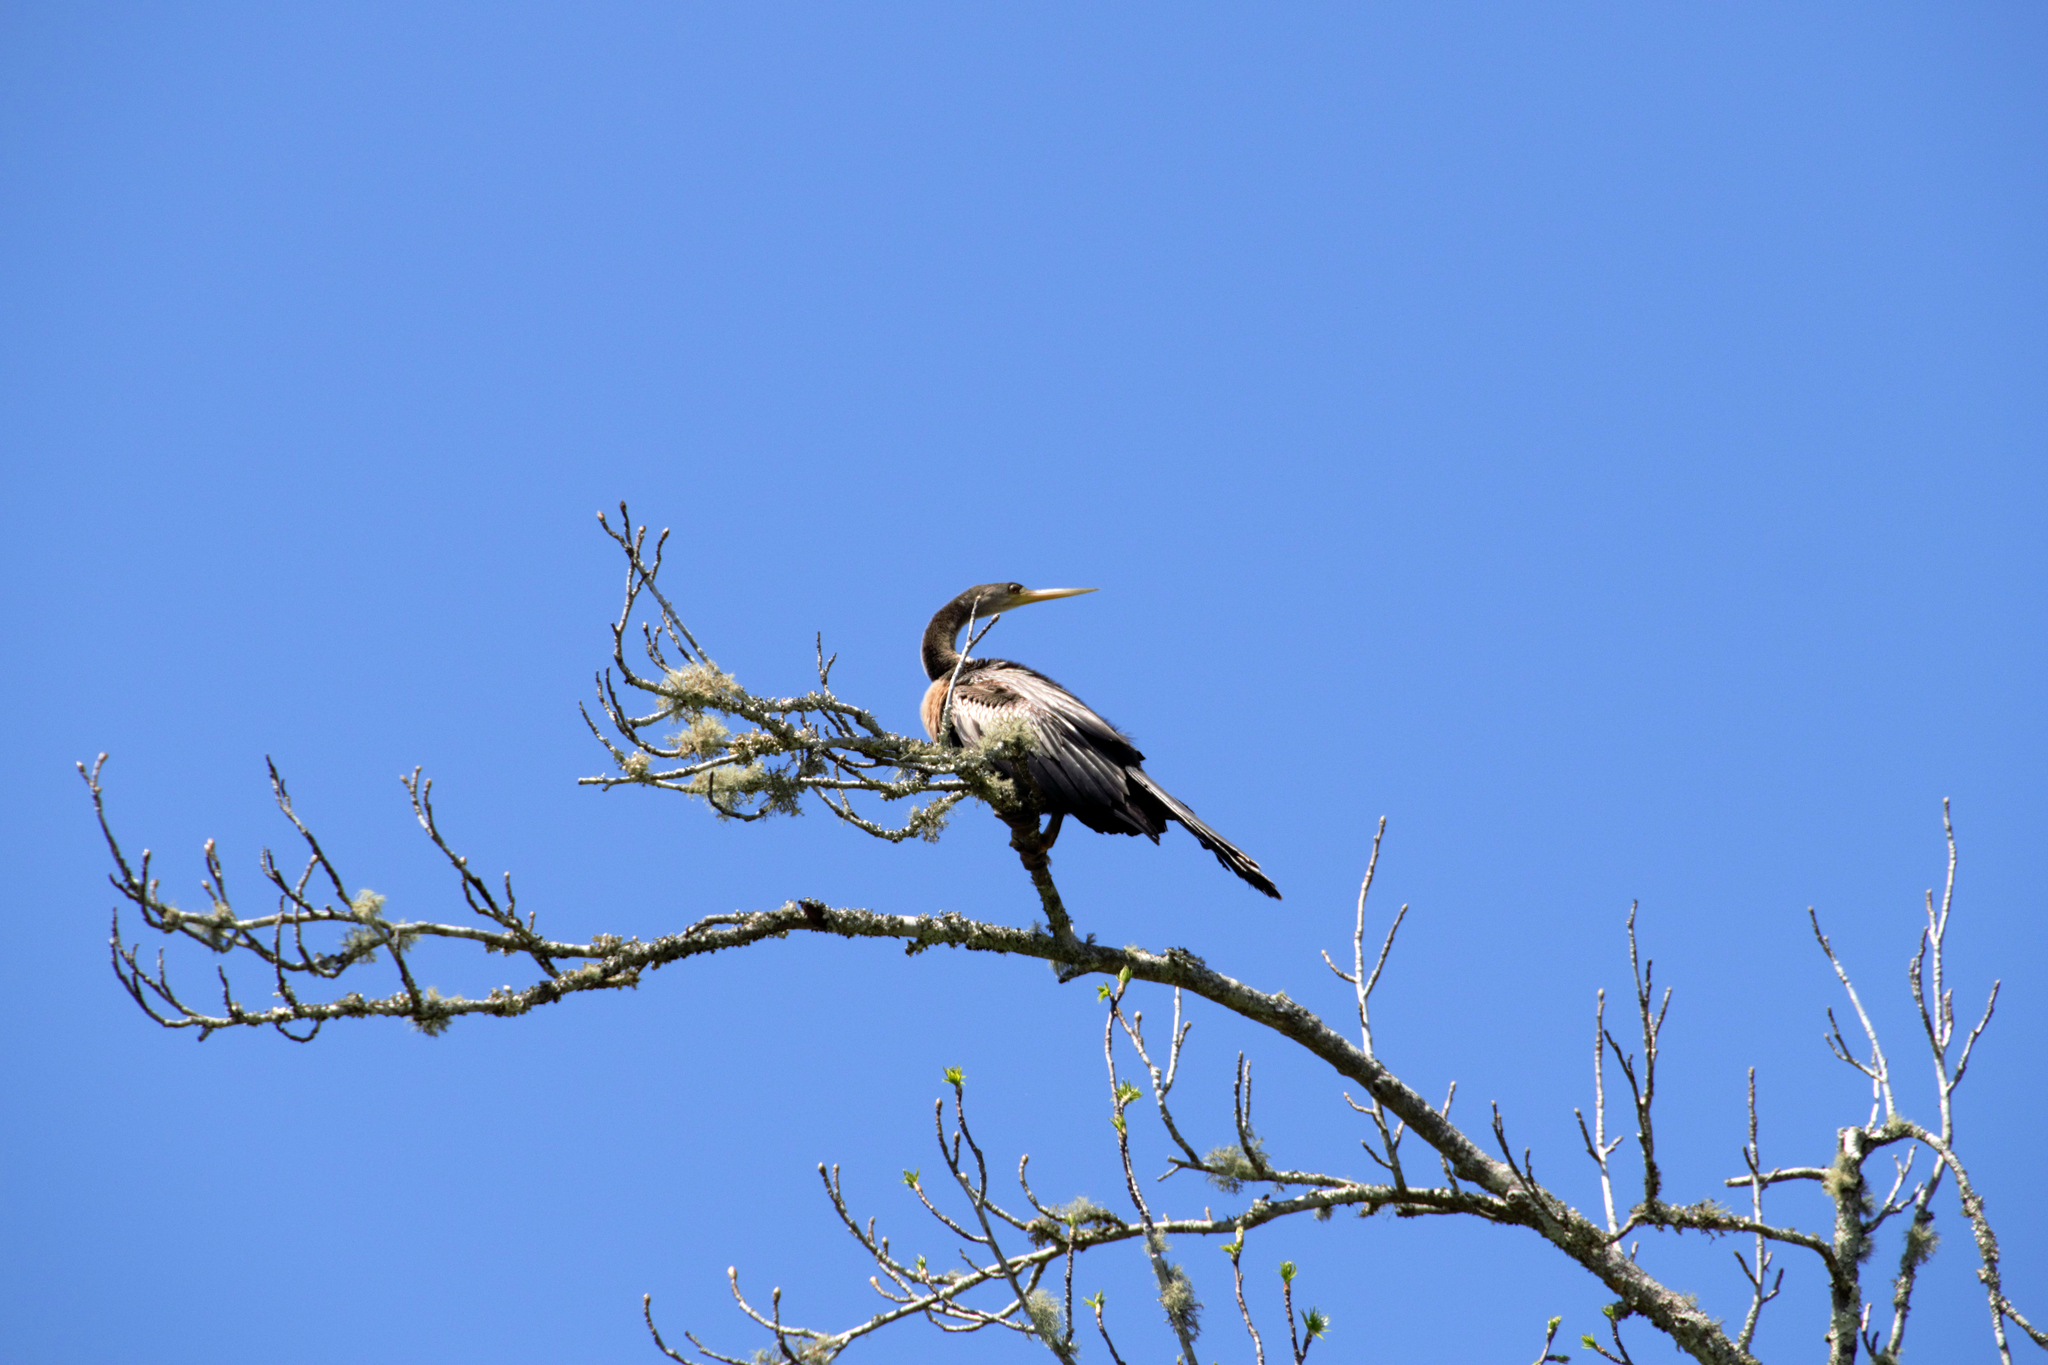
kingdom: Animalia
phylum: Chordata
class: Aves
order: Suliformes
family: Anhingidae
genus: Anhinga
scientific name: Anhinga anhinga
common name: Anhinga
